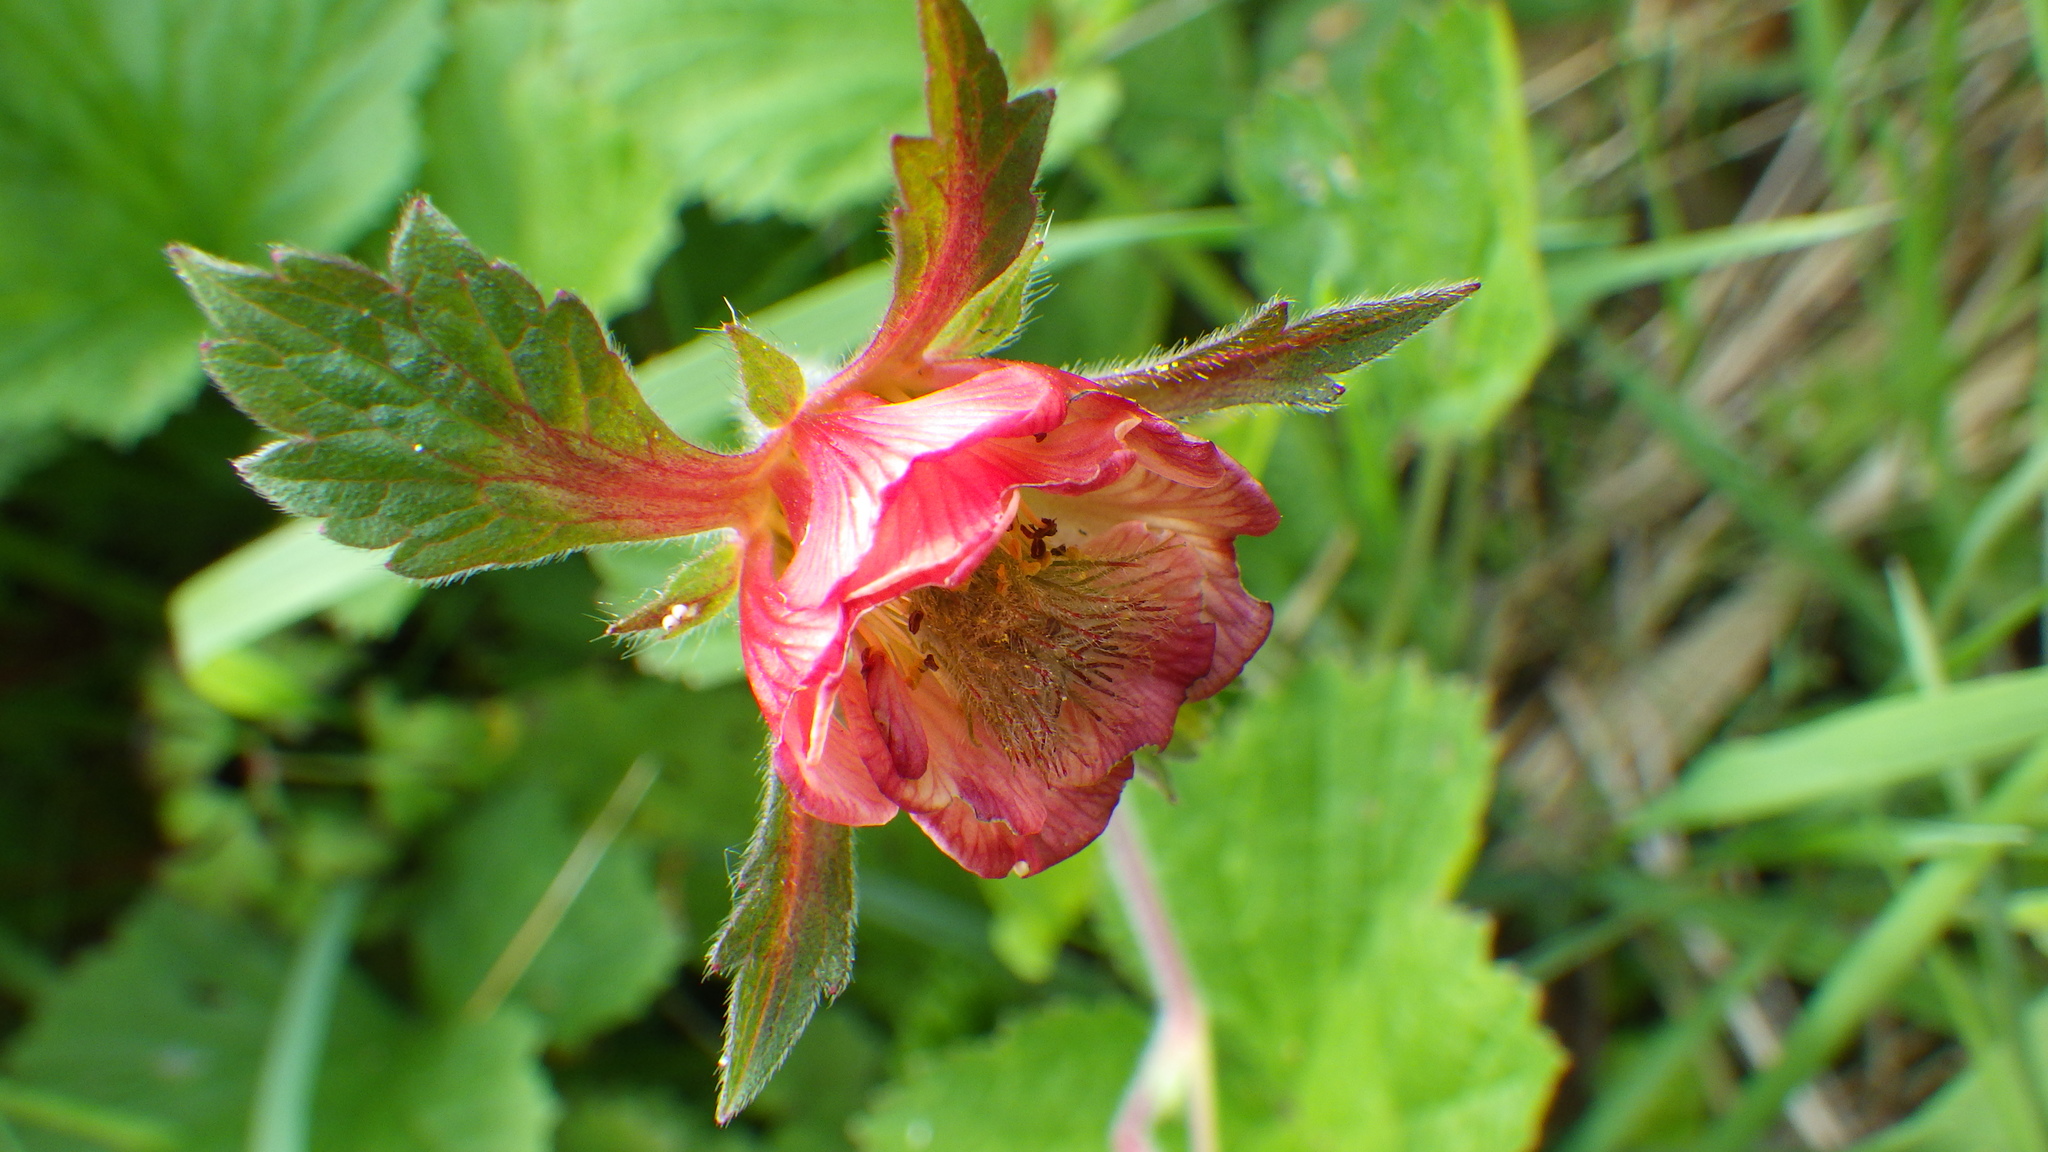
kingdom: Plantae
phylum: Tracheophyta
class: Magnoliopsida
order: Rosales
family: Rosaceae
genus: Geum
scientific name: Geum rivale
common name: Water avens
